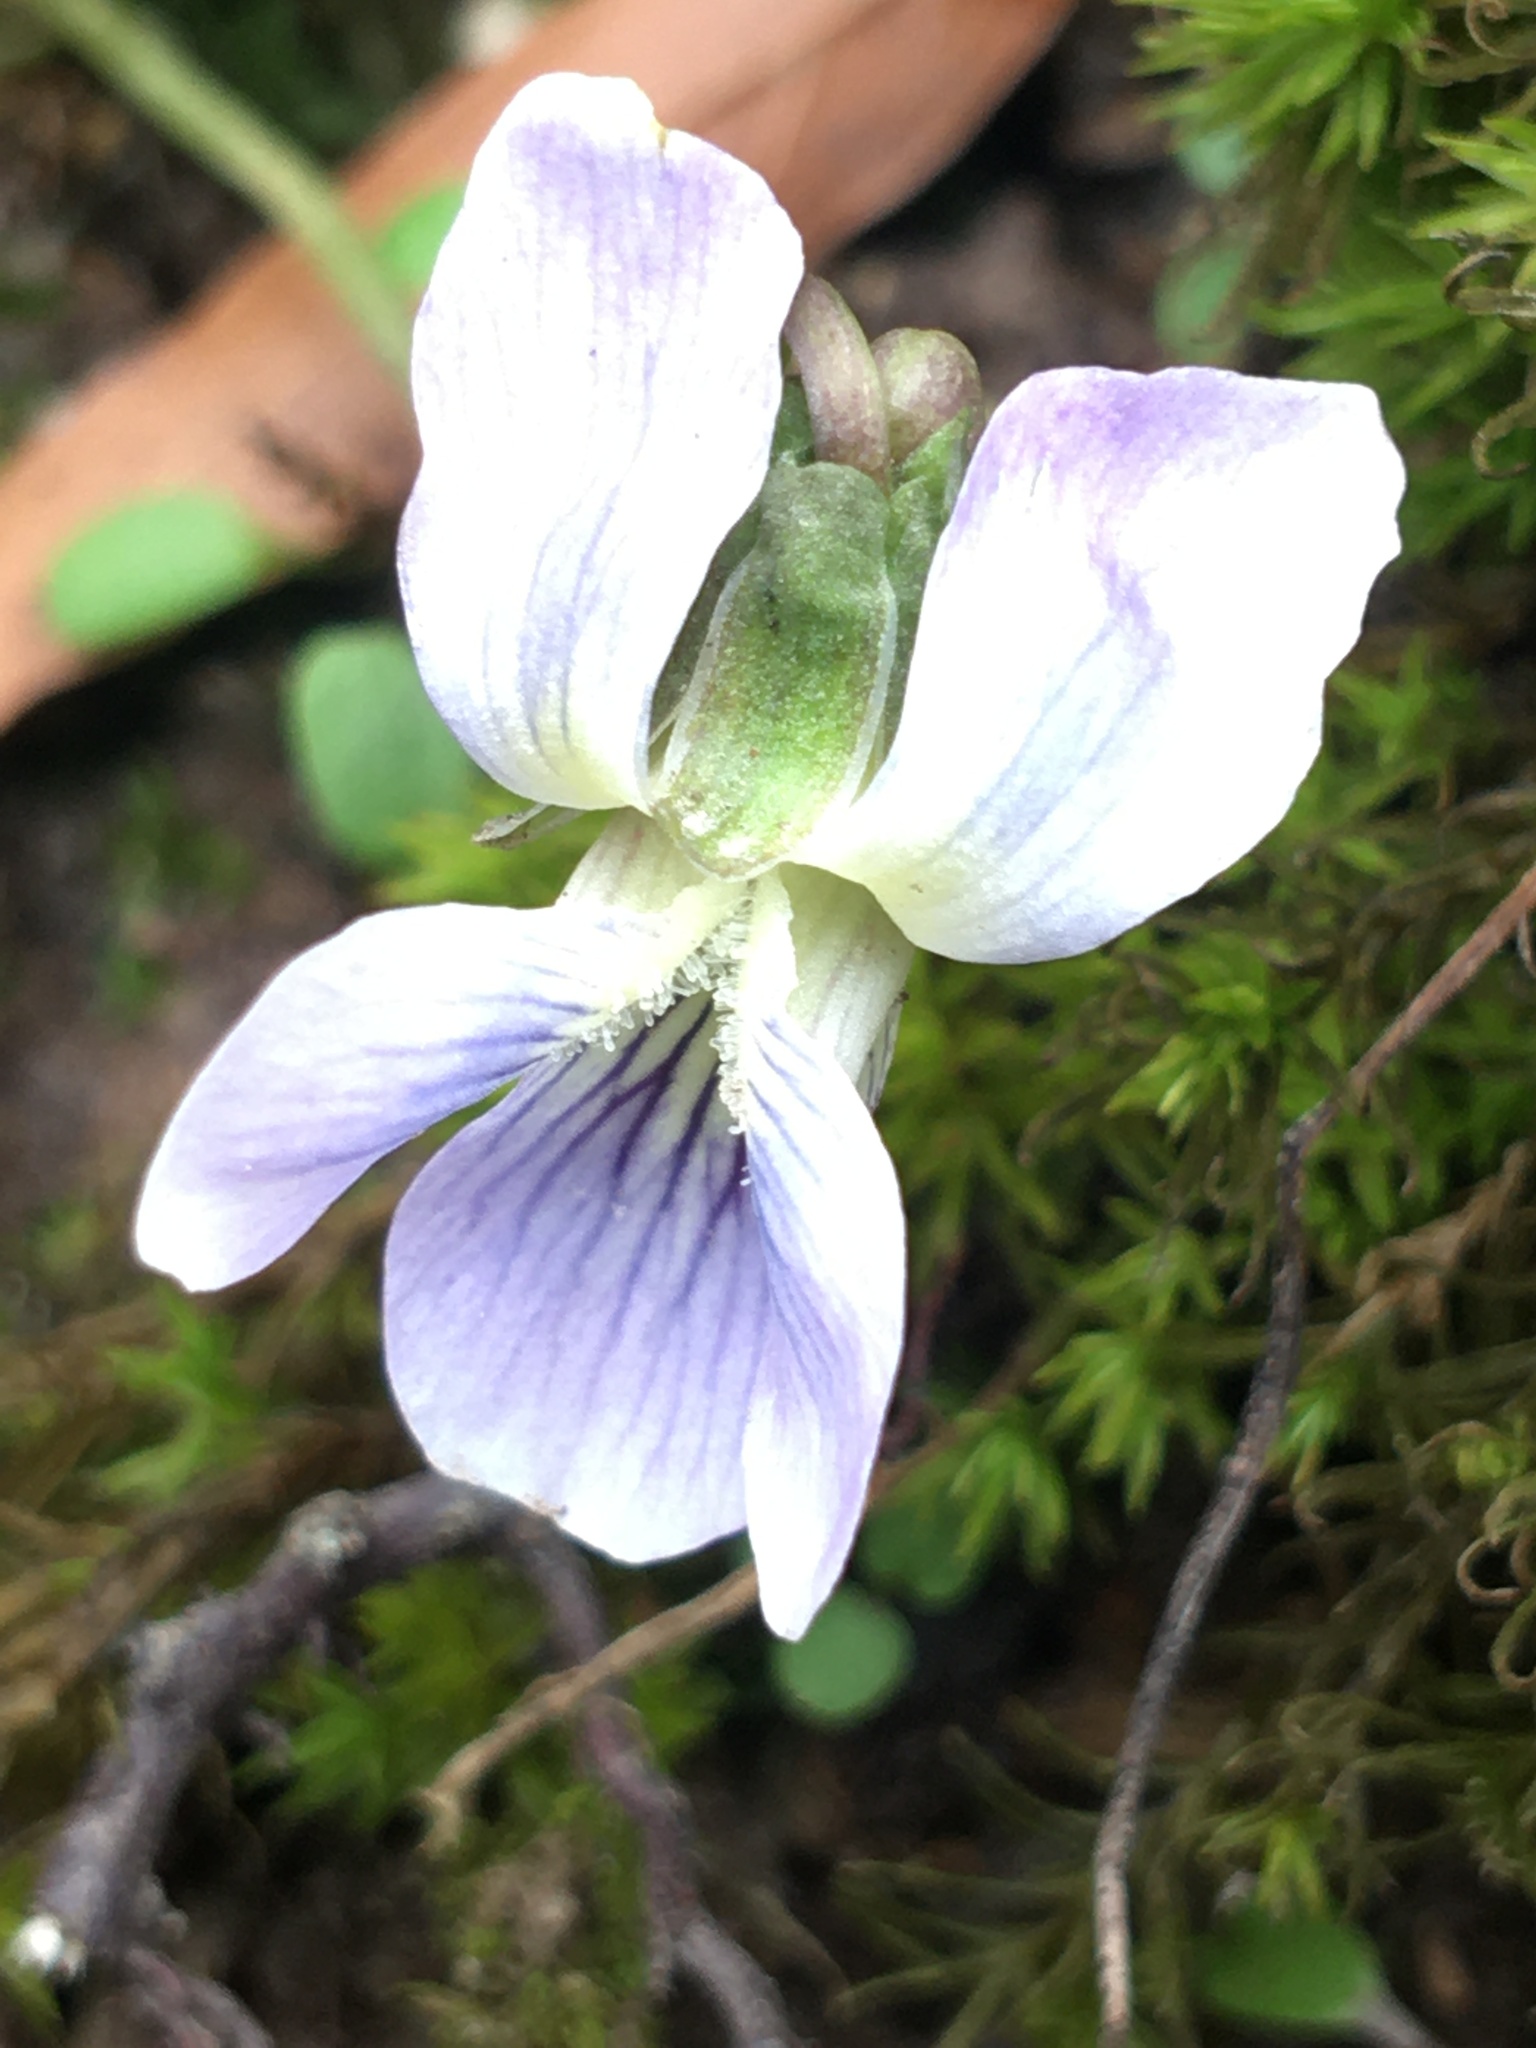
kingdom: Plantae
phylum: Tracheophyta
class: Magnoliopsida
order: Malpighiales
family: Violaceae
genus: Viola
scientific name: Viola sororia
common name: Dooryard violet
